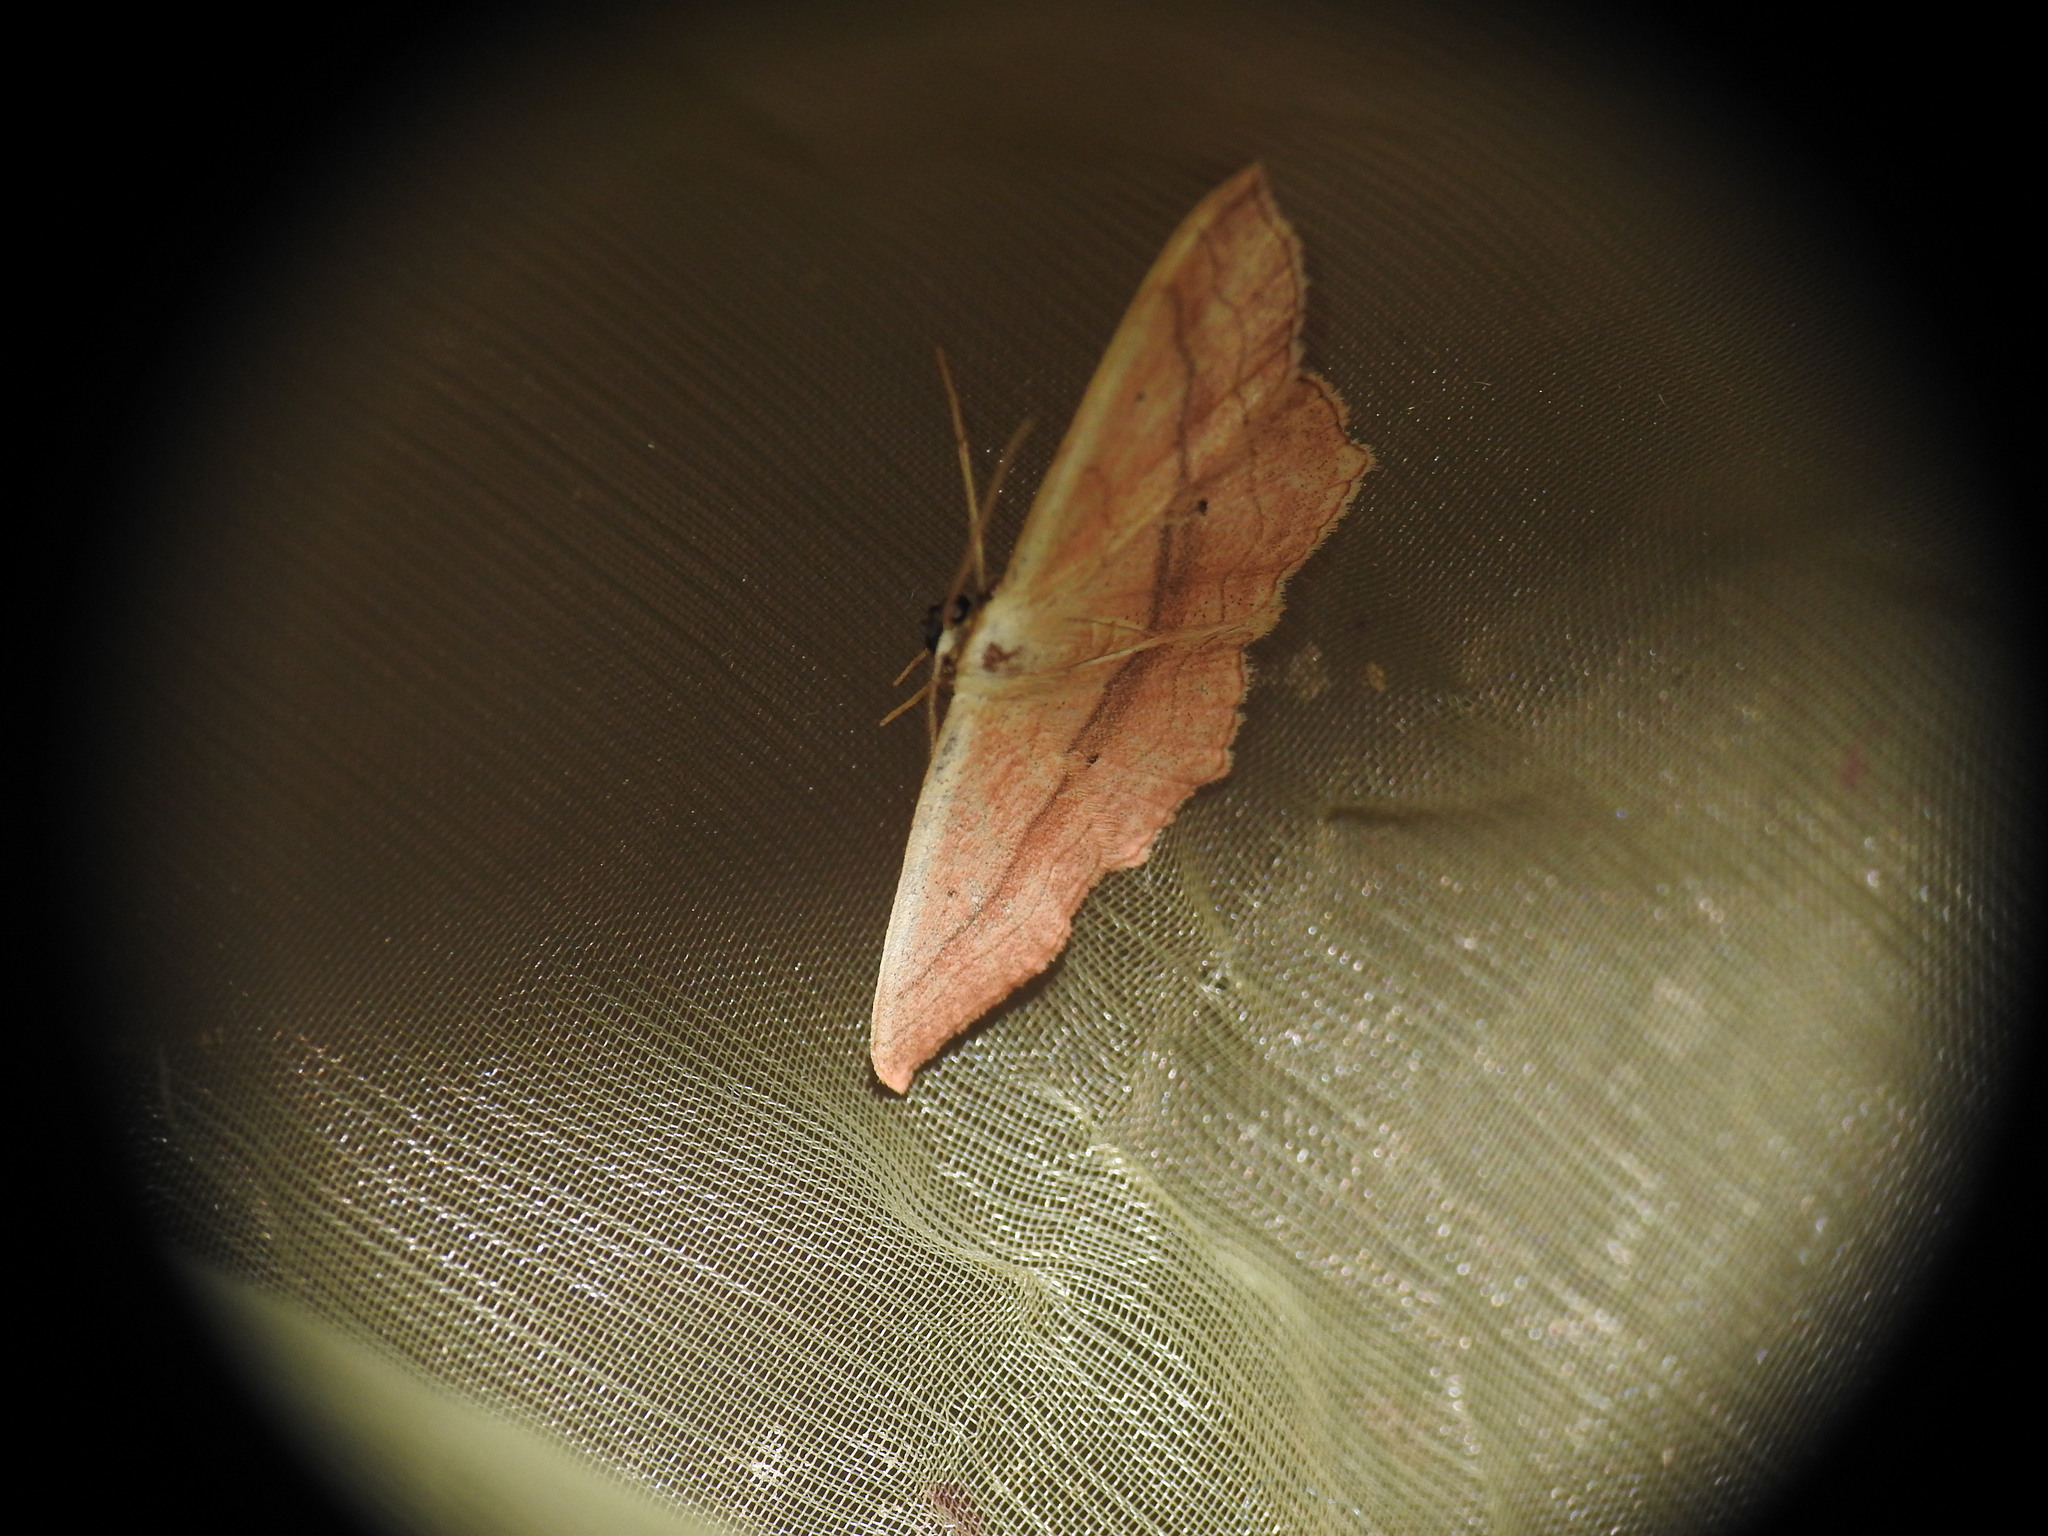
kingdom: Animalia
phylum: Arthropoda
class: Insecta
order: Lepidoptera
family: Geometridae
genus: Scopula
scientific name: Scopula imitaria
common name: Small blood-vein
